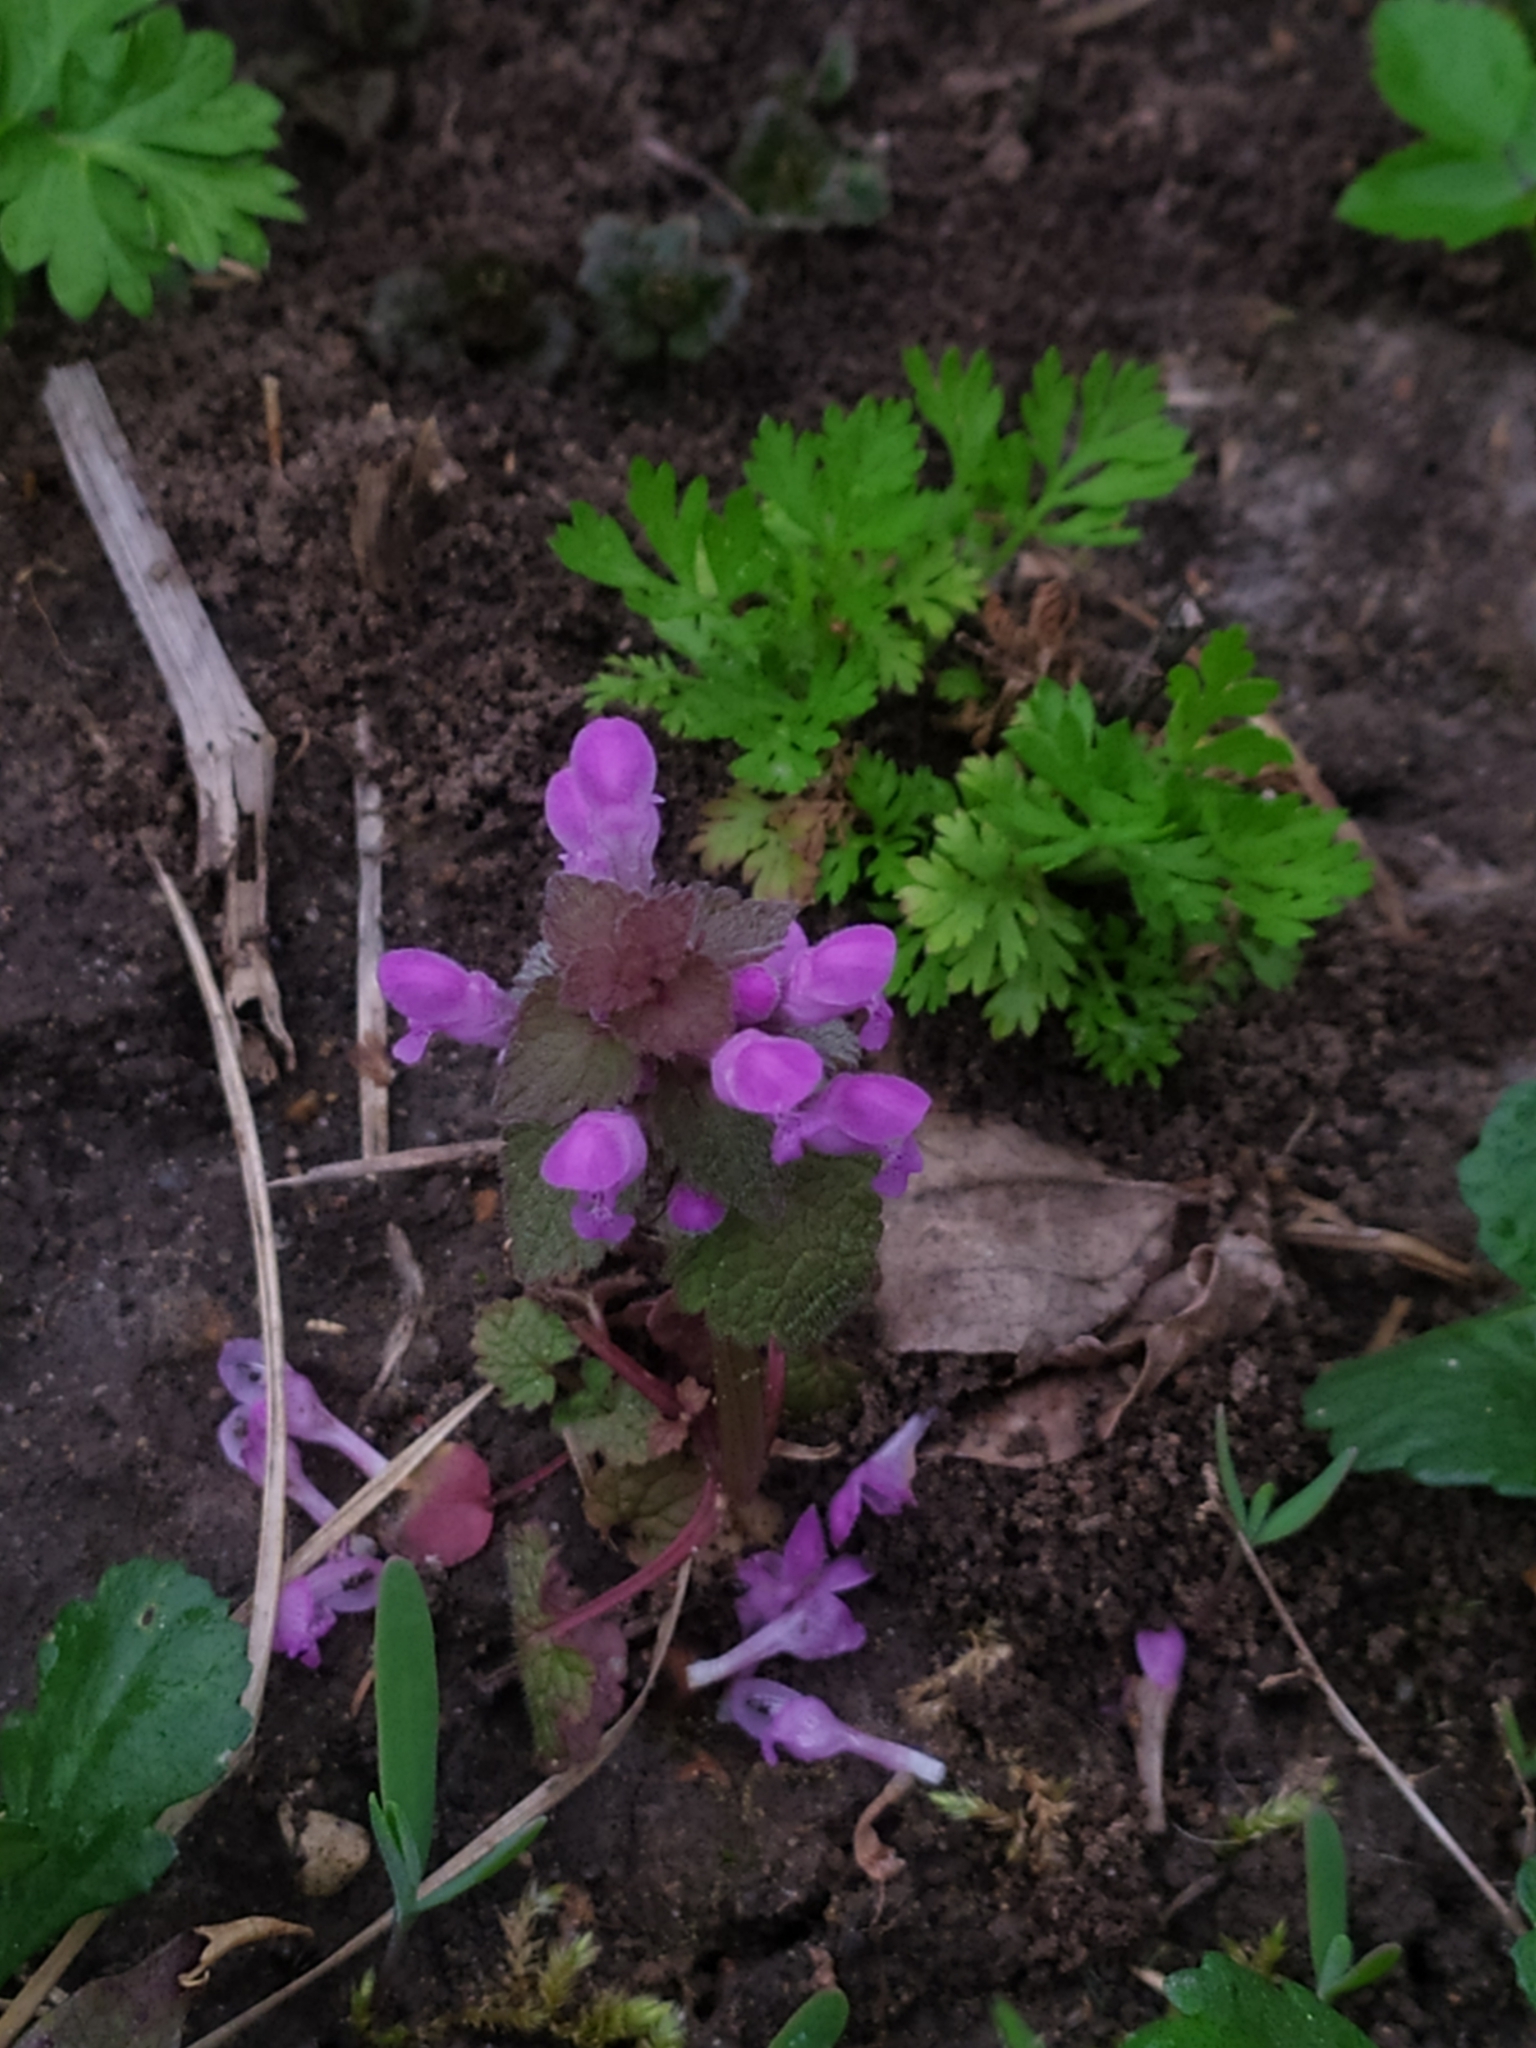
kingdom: Plantae
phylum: Tracheophyta
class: Magnoliopsida
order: Lamiales
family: Lamiaceae
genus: Lamium
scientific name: Lamium purpureum
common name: Red dead-nettle
